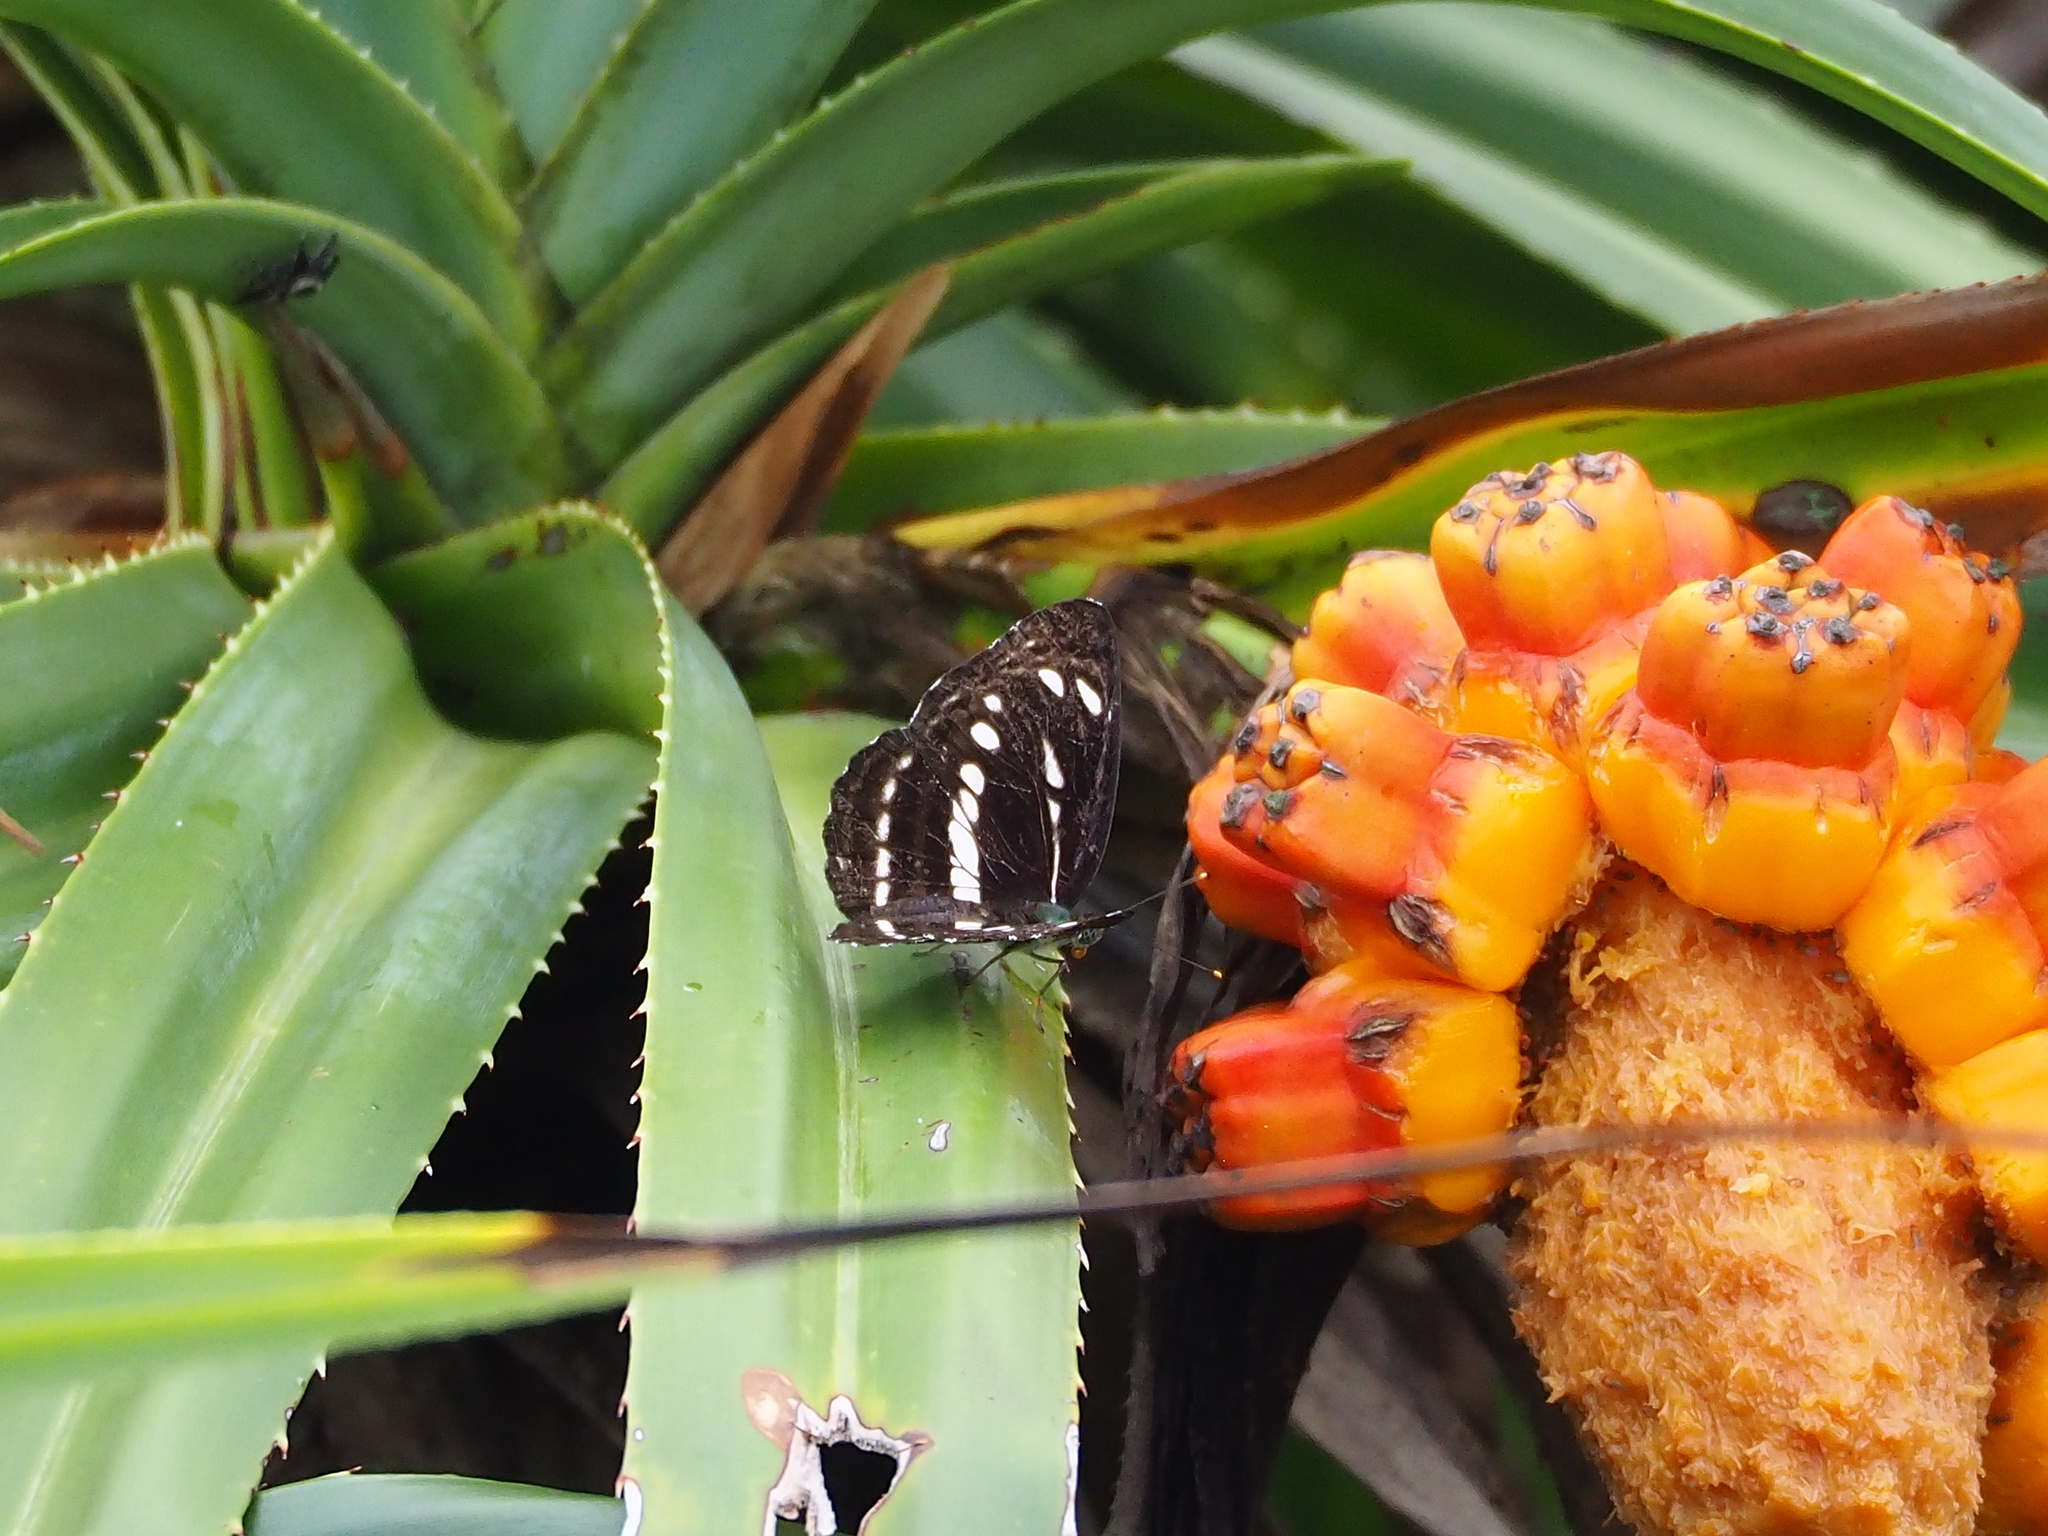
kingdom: Animalia
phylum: Arthropoda
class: Insecta
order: Lepidoptera
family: Nymphalidae
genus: Neptis
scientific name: Neptis nata
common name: Sullied brown sailer
